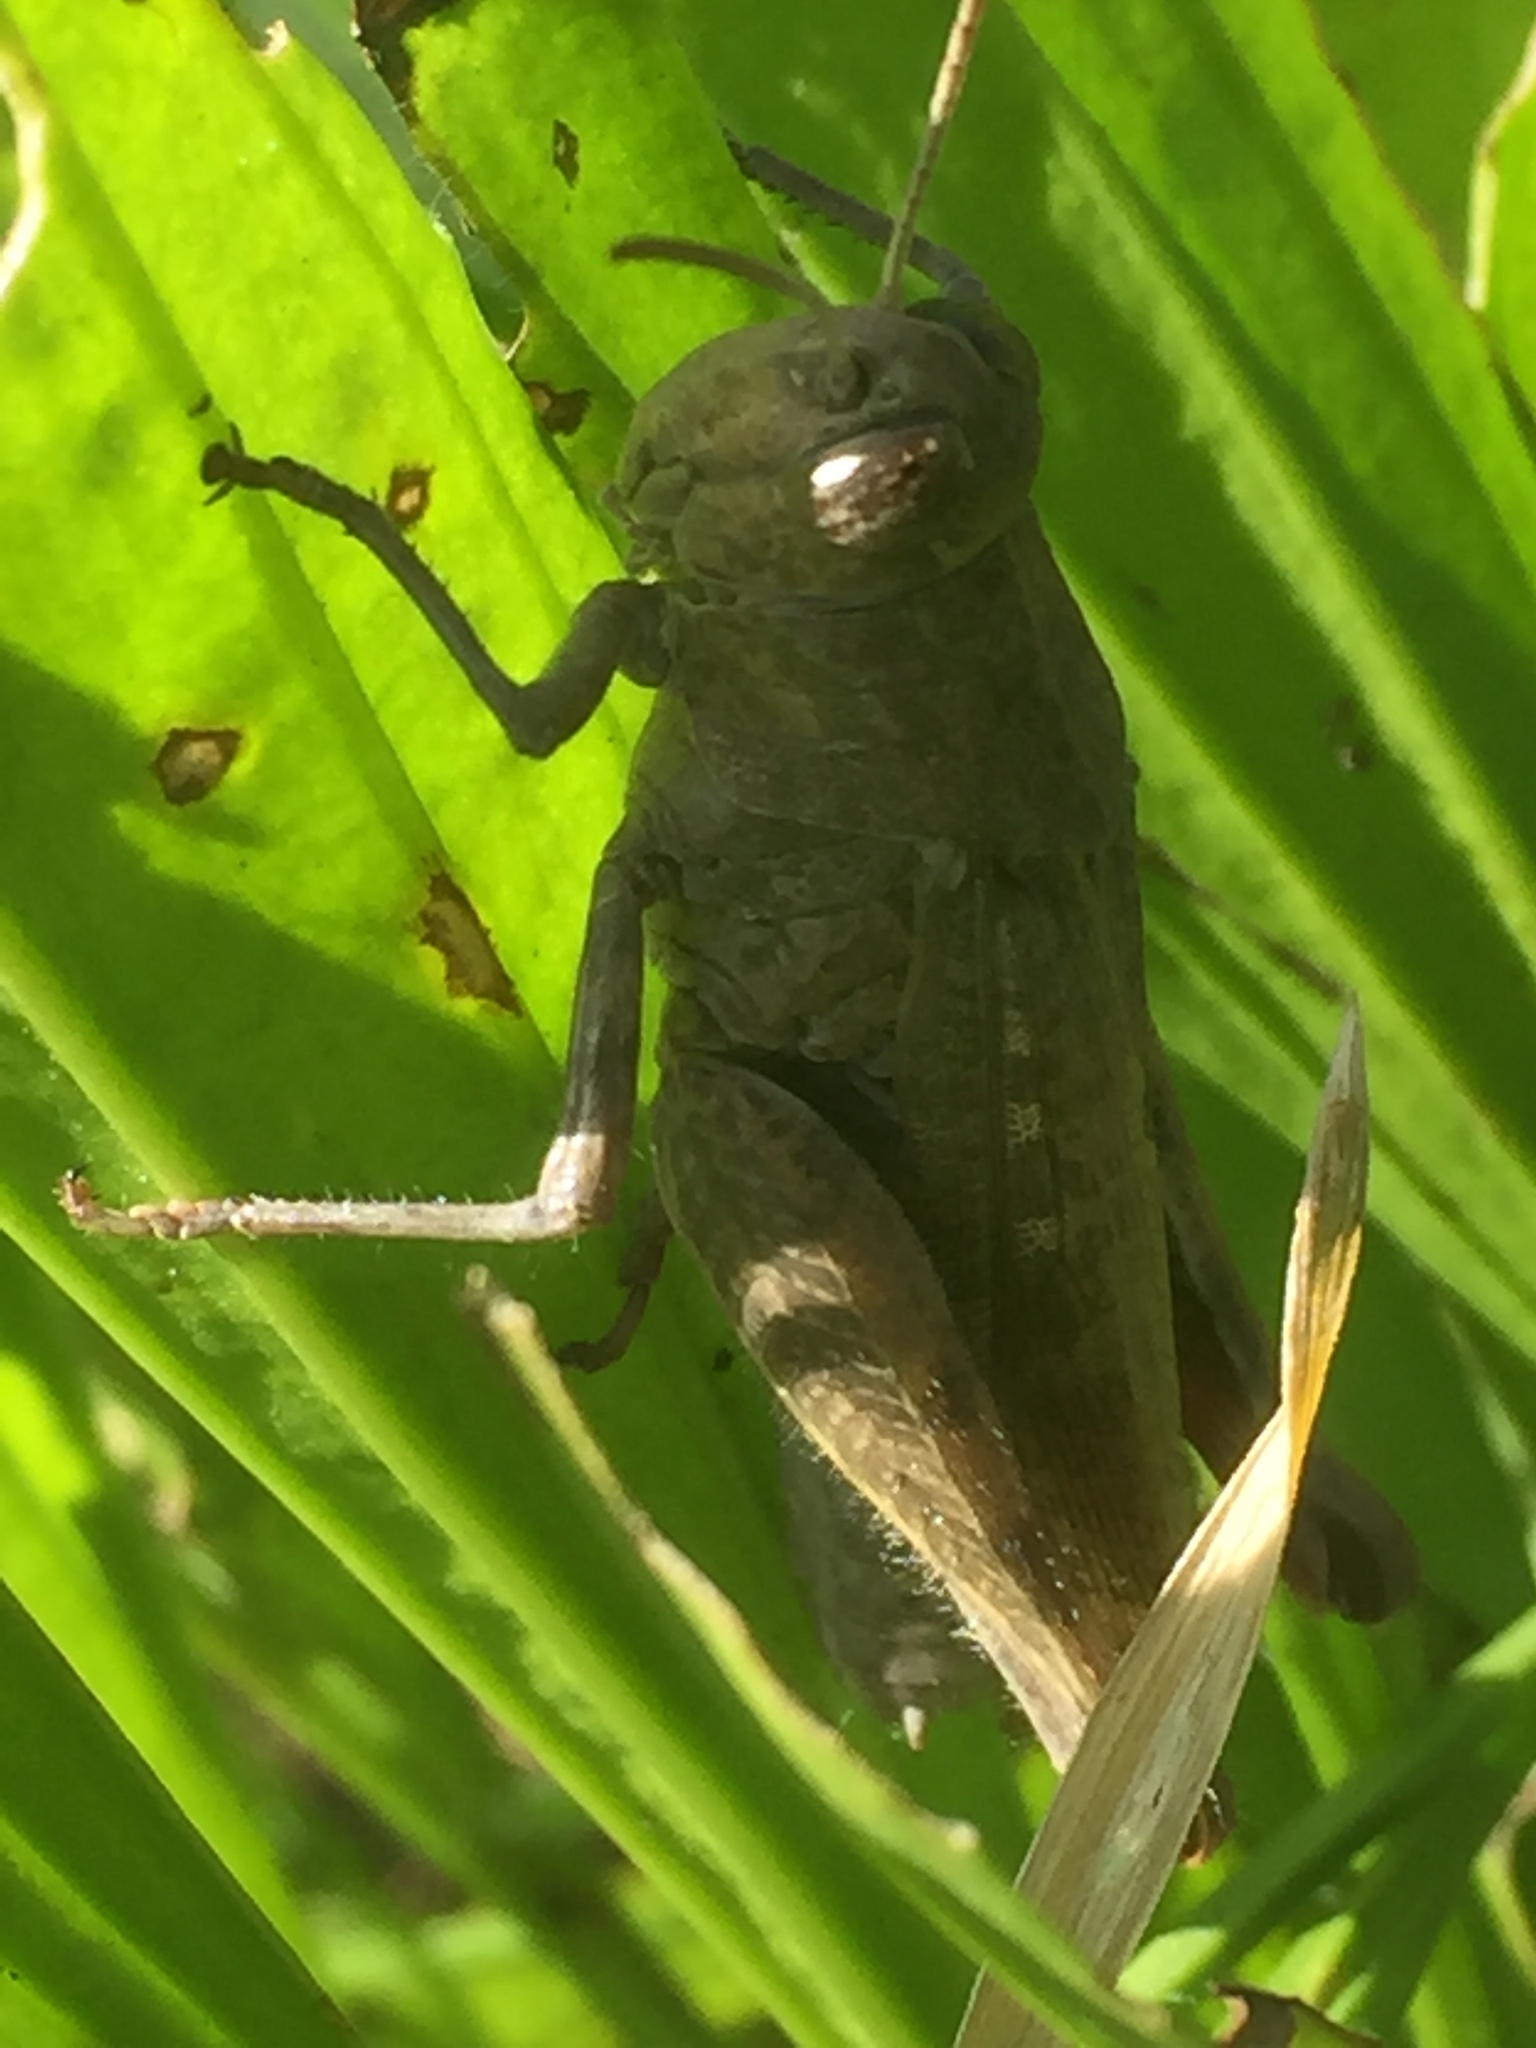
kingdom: Animalia
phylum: Arthropoda
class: Insecta
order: Orthoptera
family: Acrididae
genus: Aiolopus
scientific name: Aiolopus thalassinus
